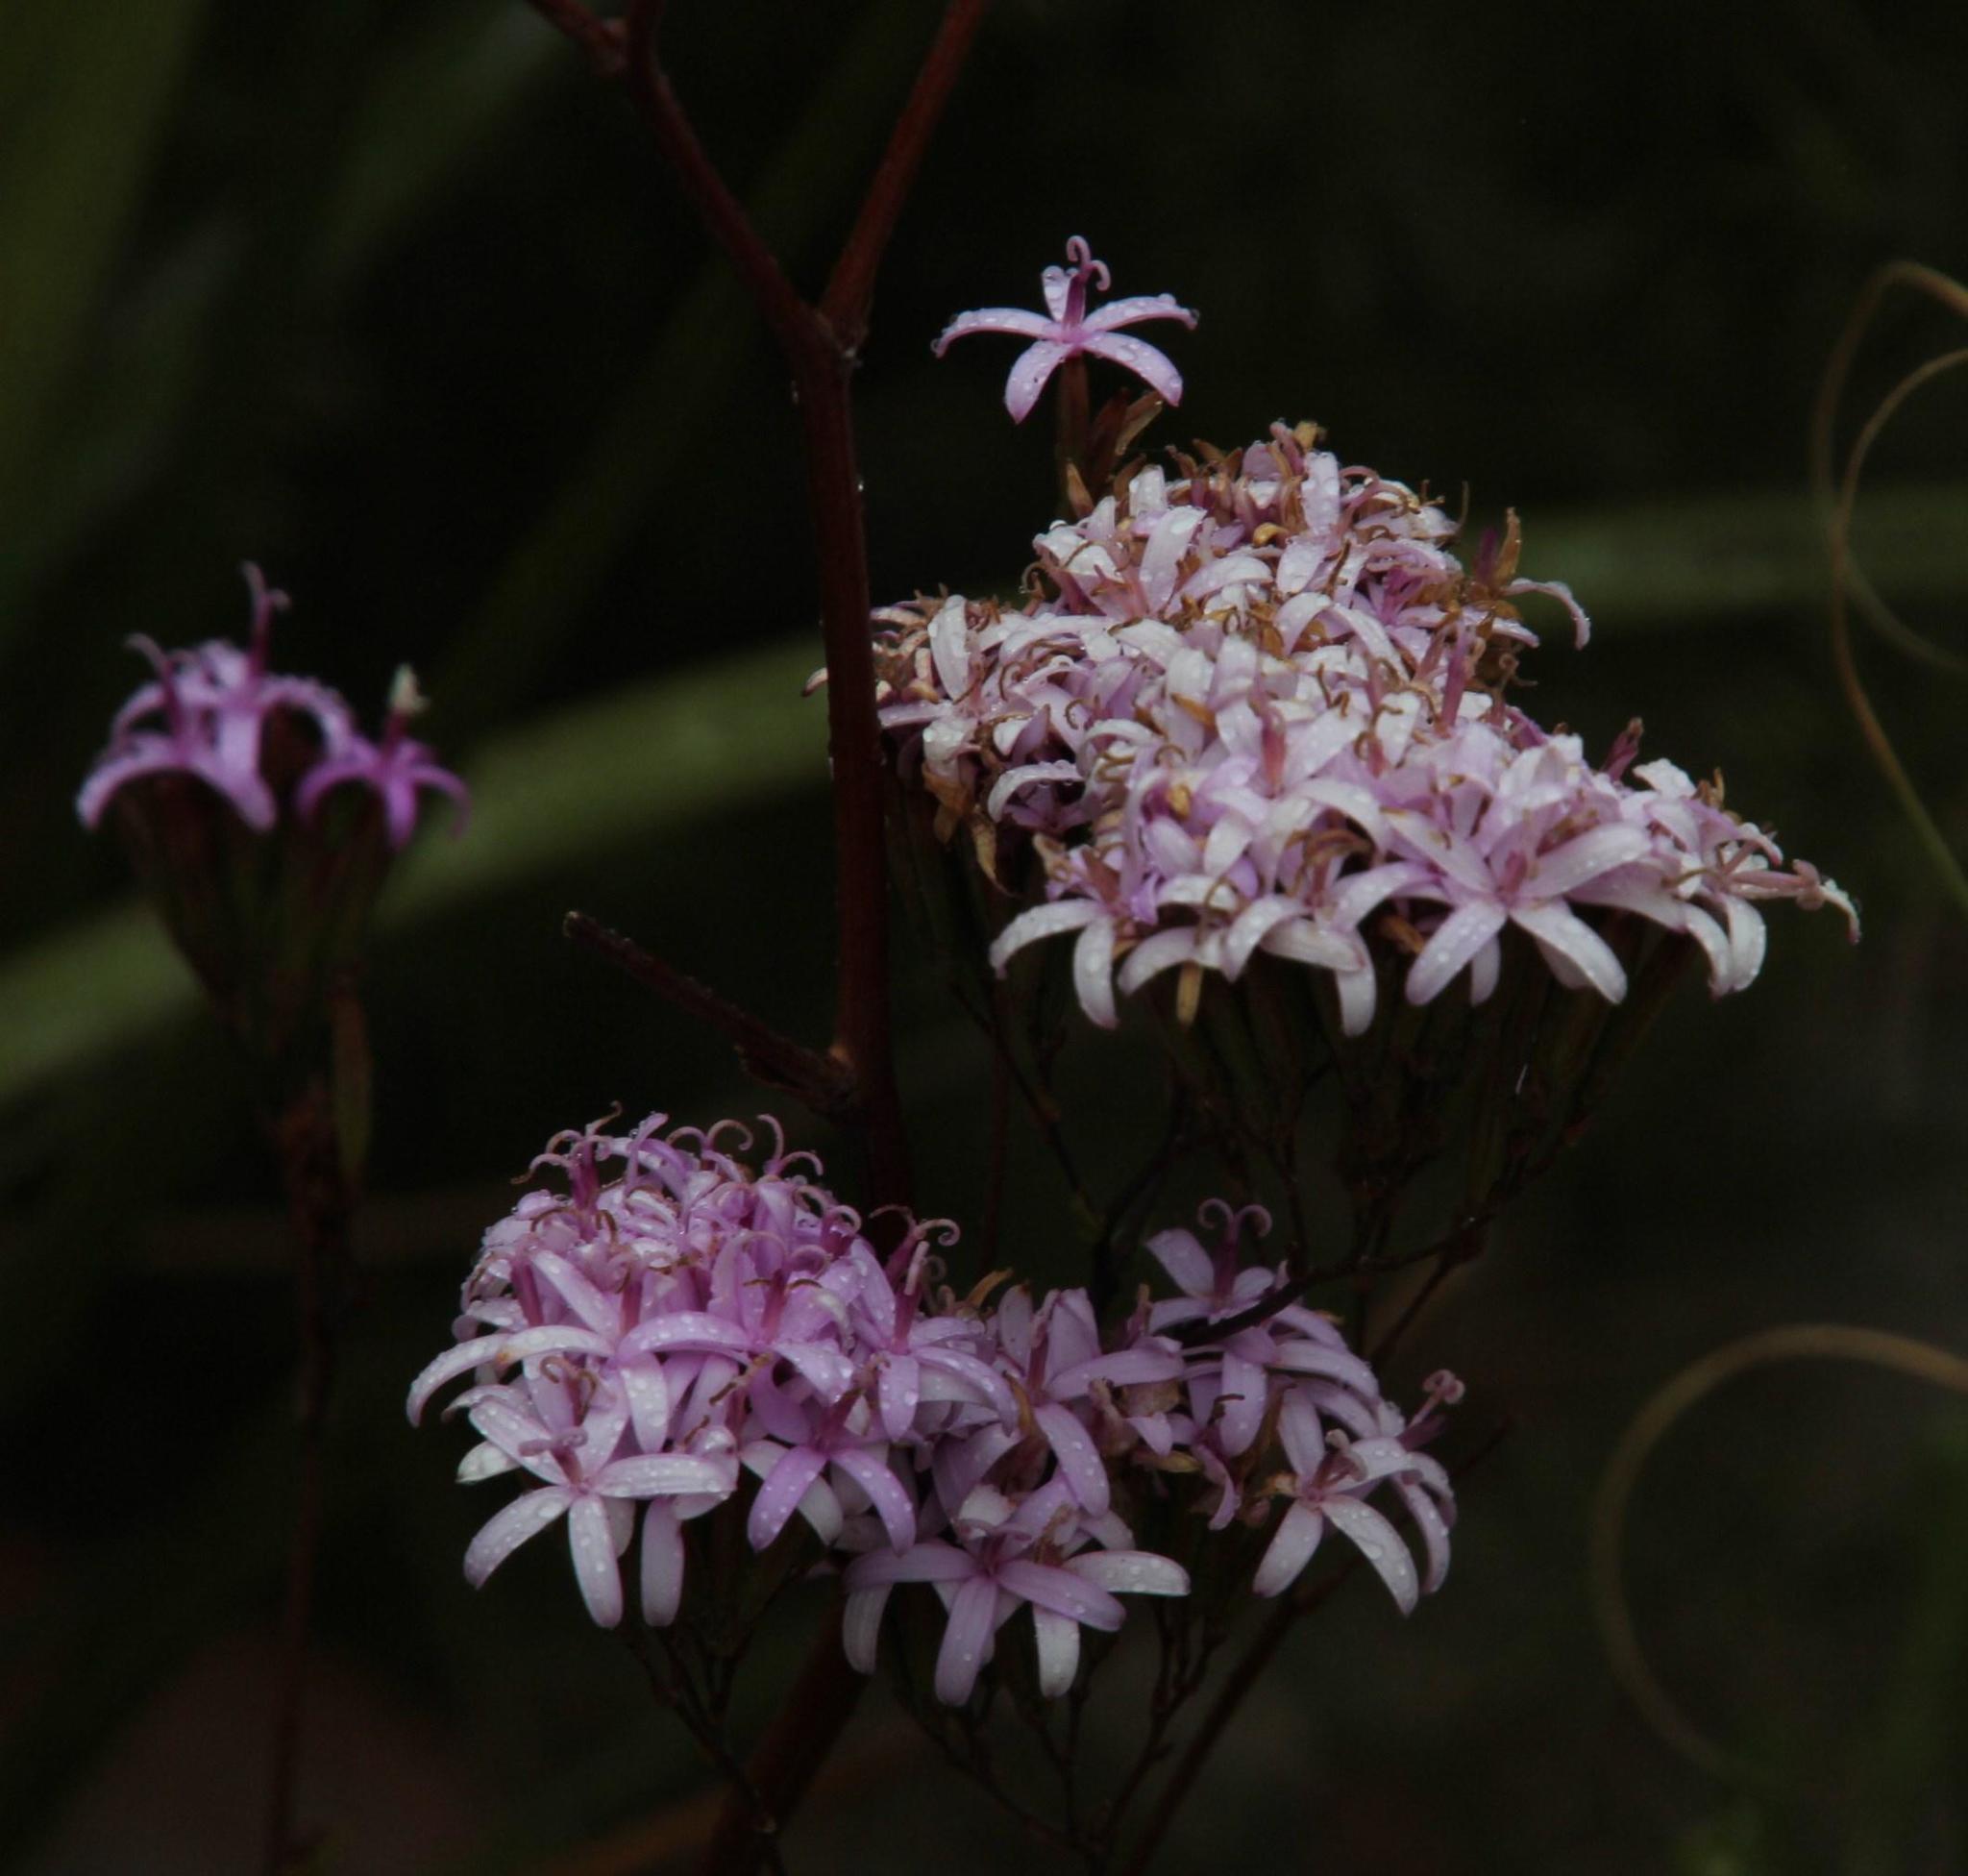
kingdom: Plantae
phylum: Tracheophyta
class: Magnoliopsida
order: Asterales
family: Asteraceae
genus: Corymbium
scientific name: Corymbium glabrum
